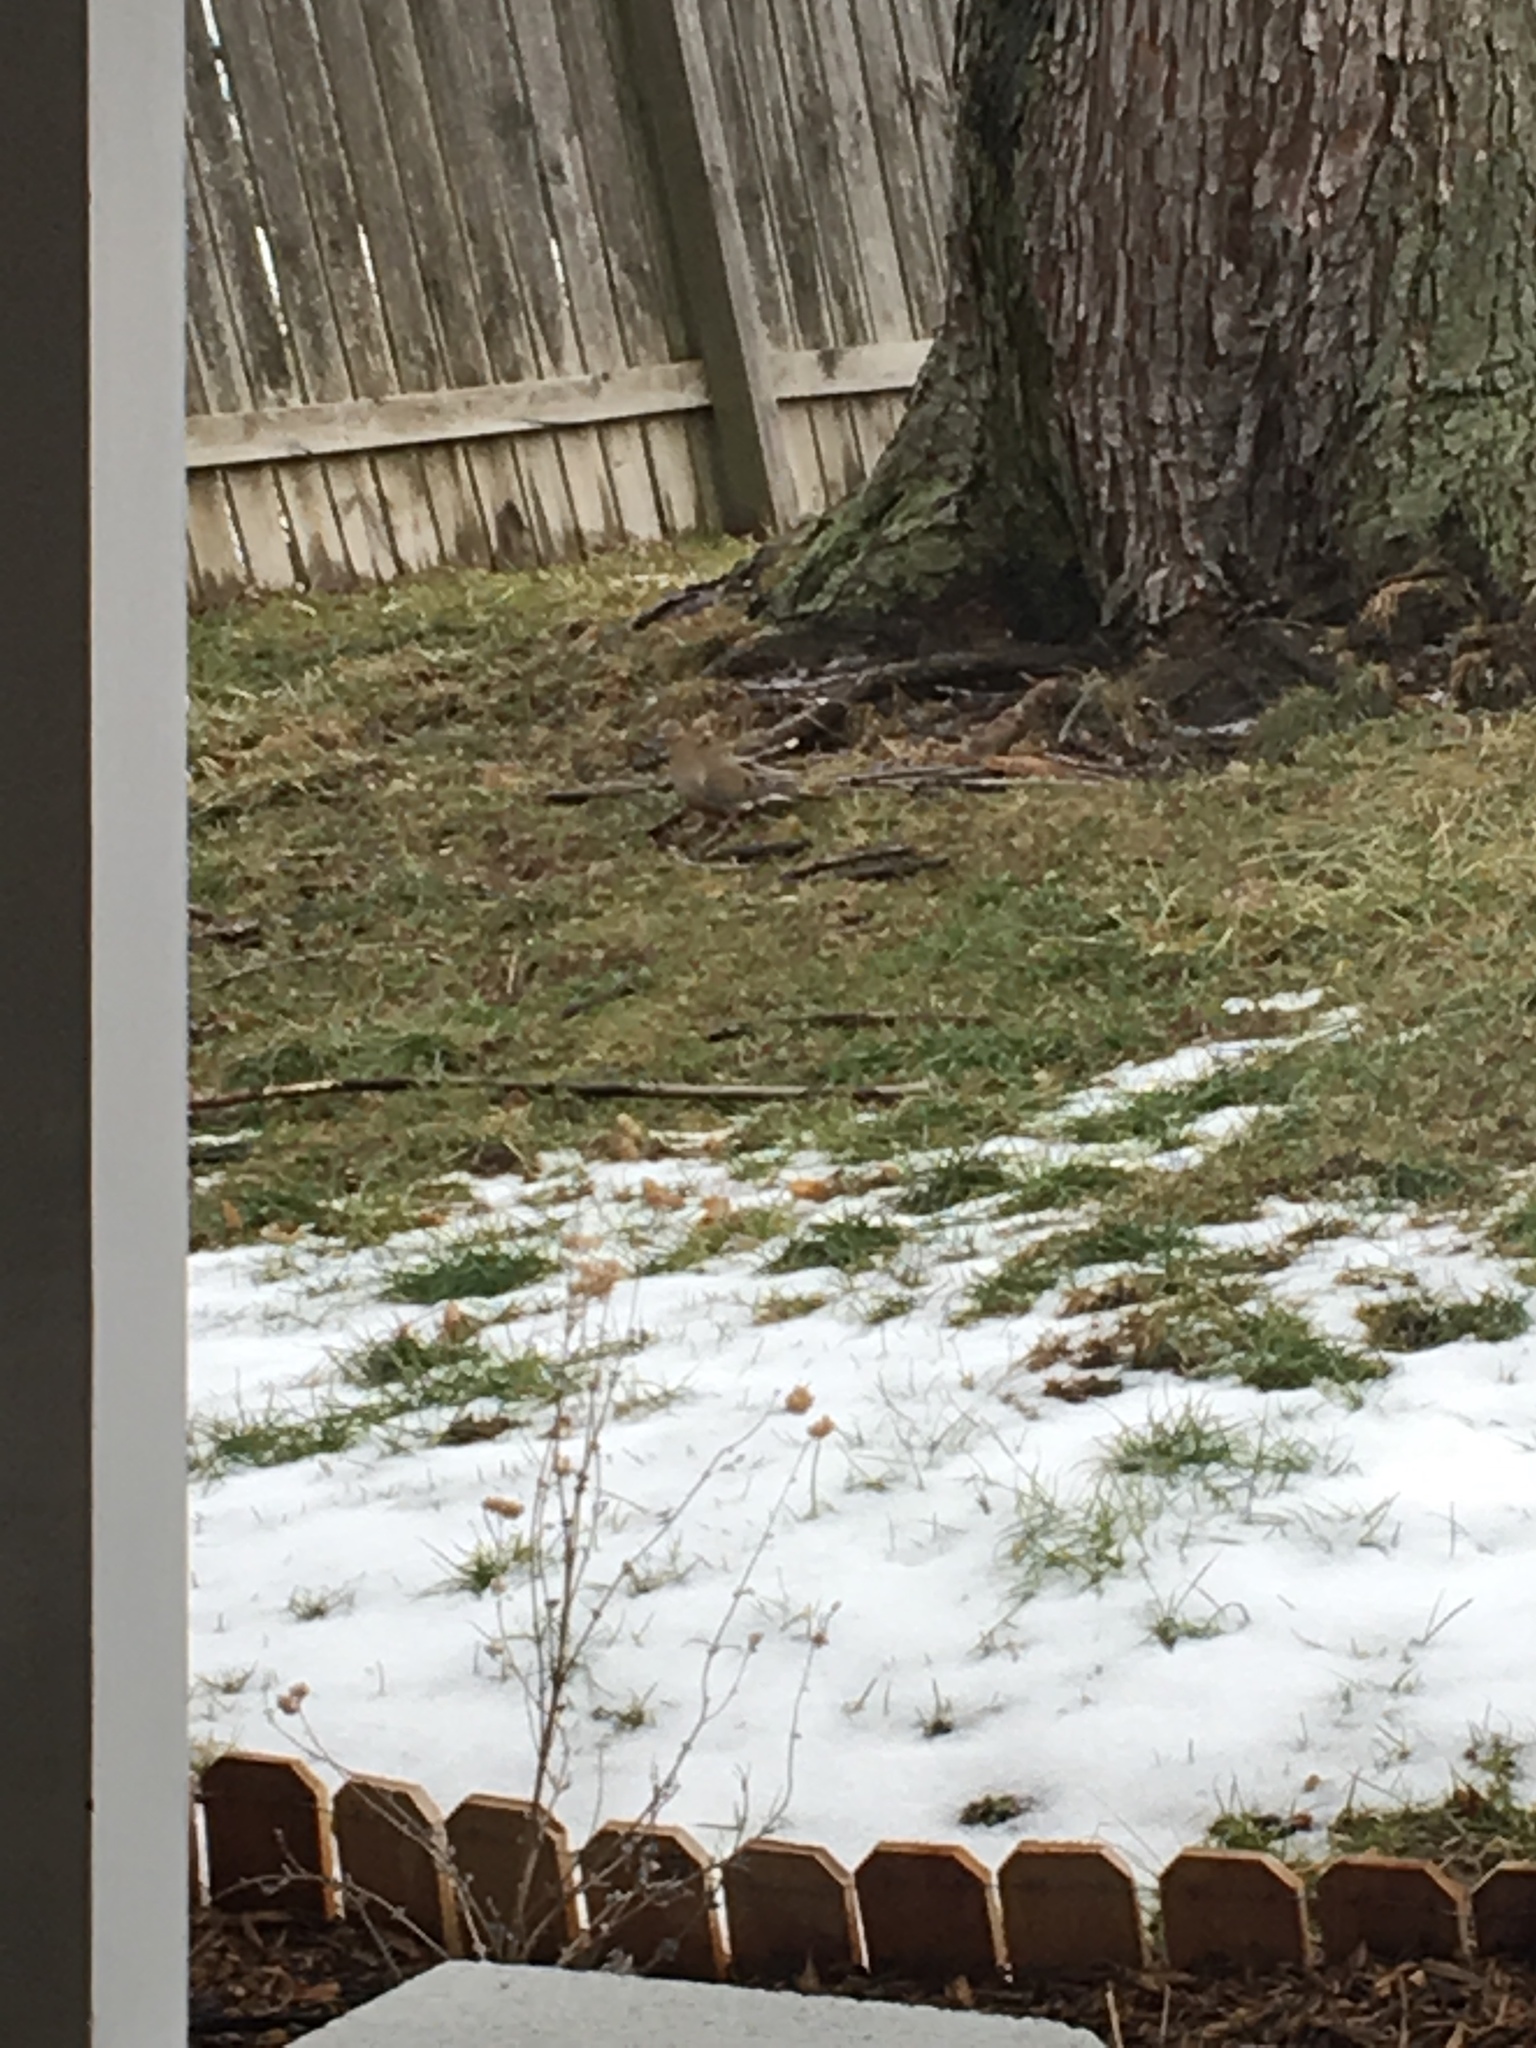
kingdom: Animalia
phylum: Chordata
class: Aves
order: Columbiformes
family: Columbidae
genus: Zenaida
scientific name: Zenaida macroura
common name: Mourning dove
